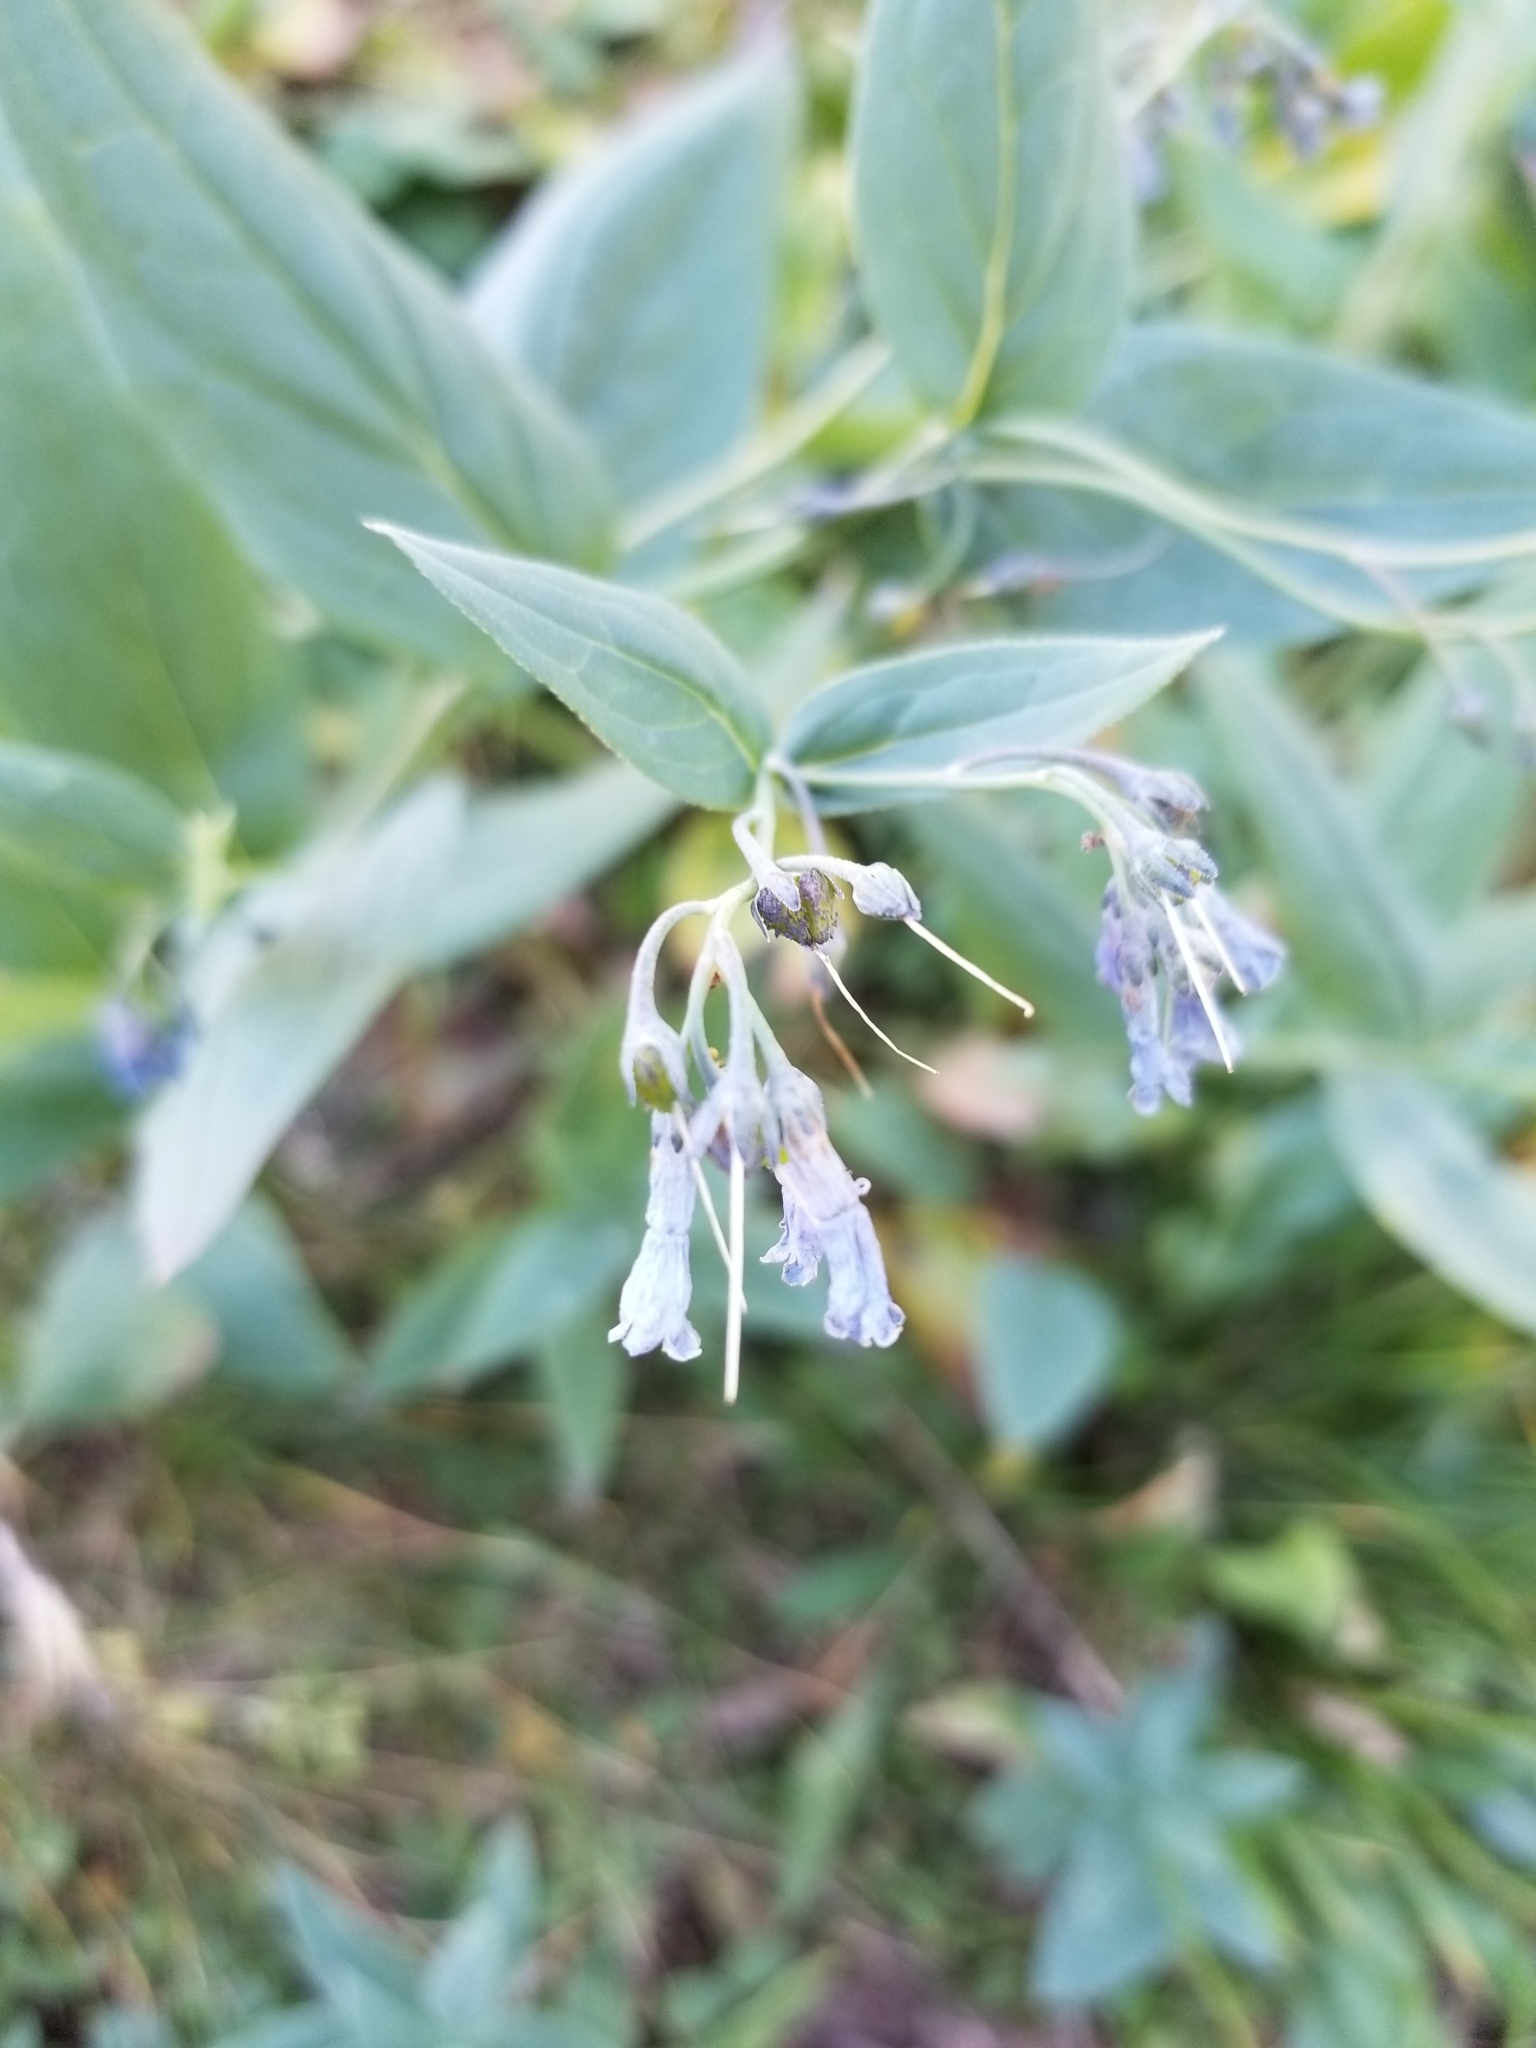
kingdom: Plantae
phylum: Tracheophyta
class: Magnoliopsida
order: Boraginales
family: Boraginaceae
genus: Mertensia
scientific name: Mertensia ciliata
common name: Tall chiming-bells
